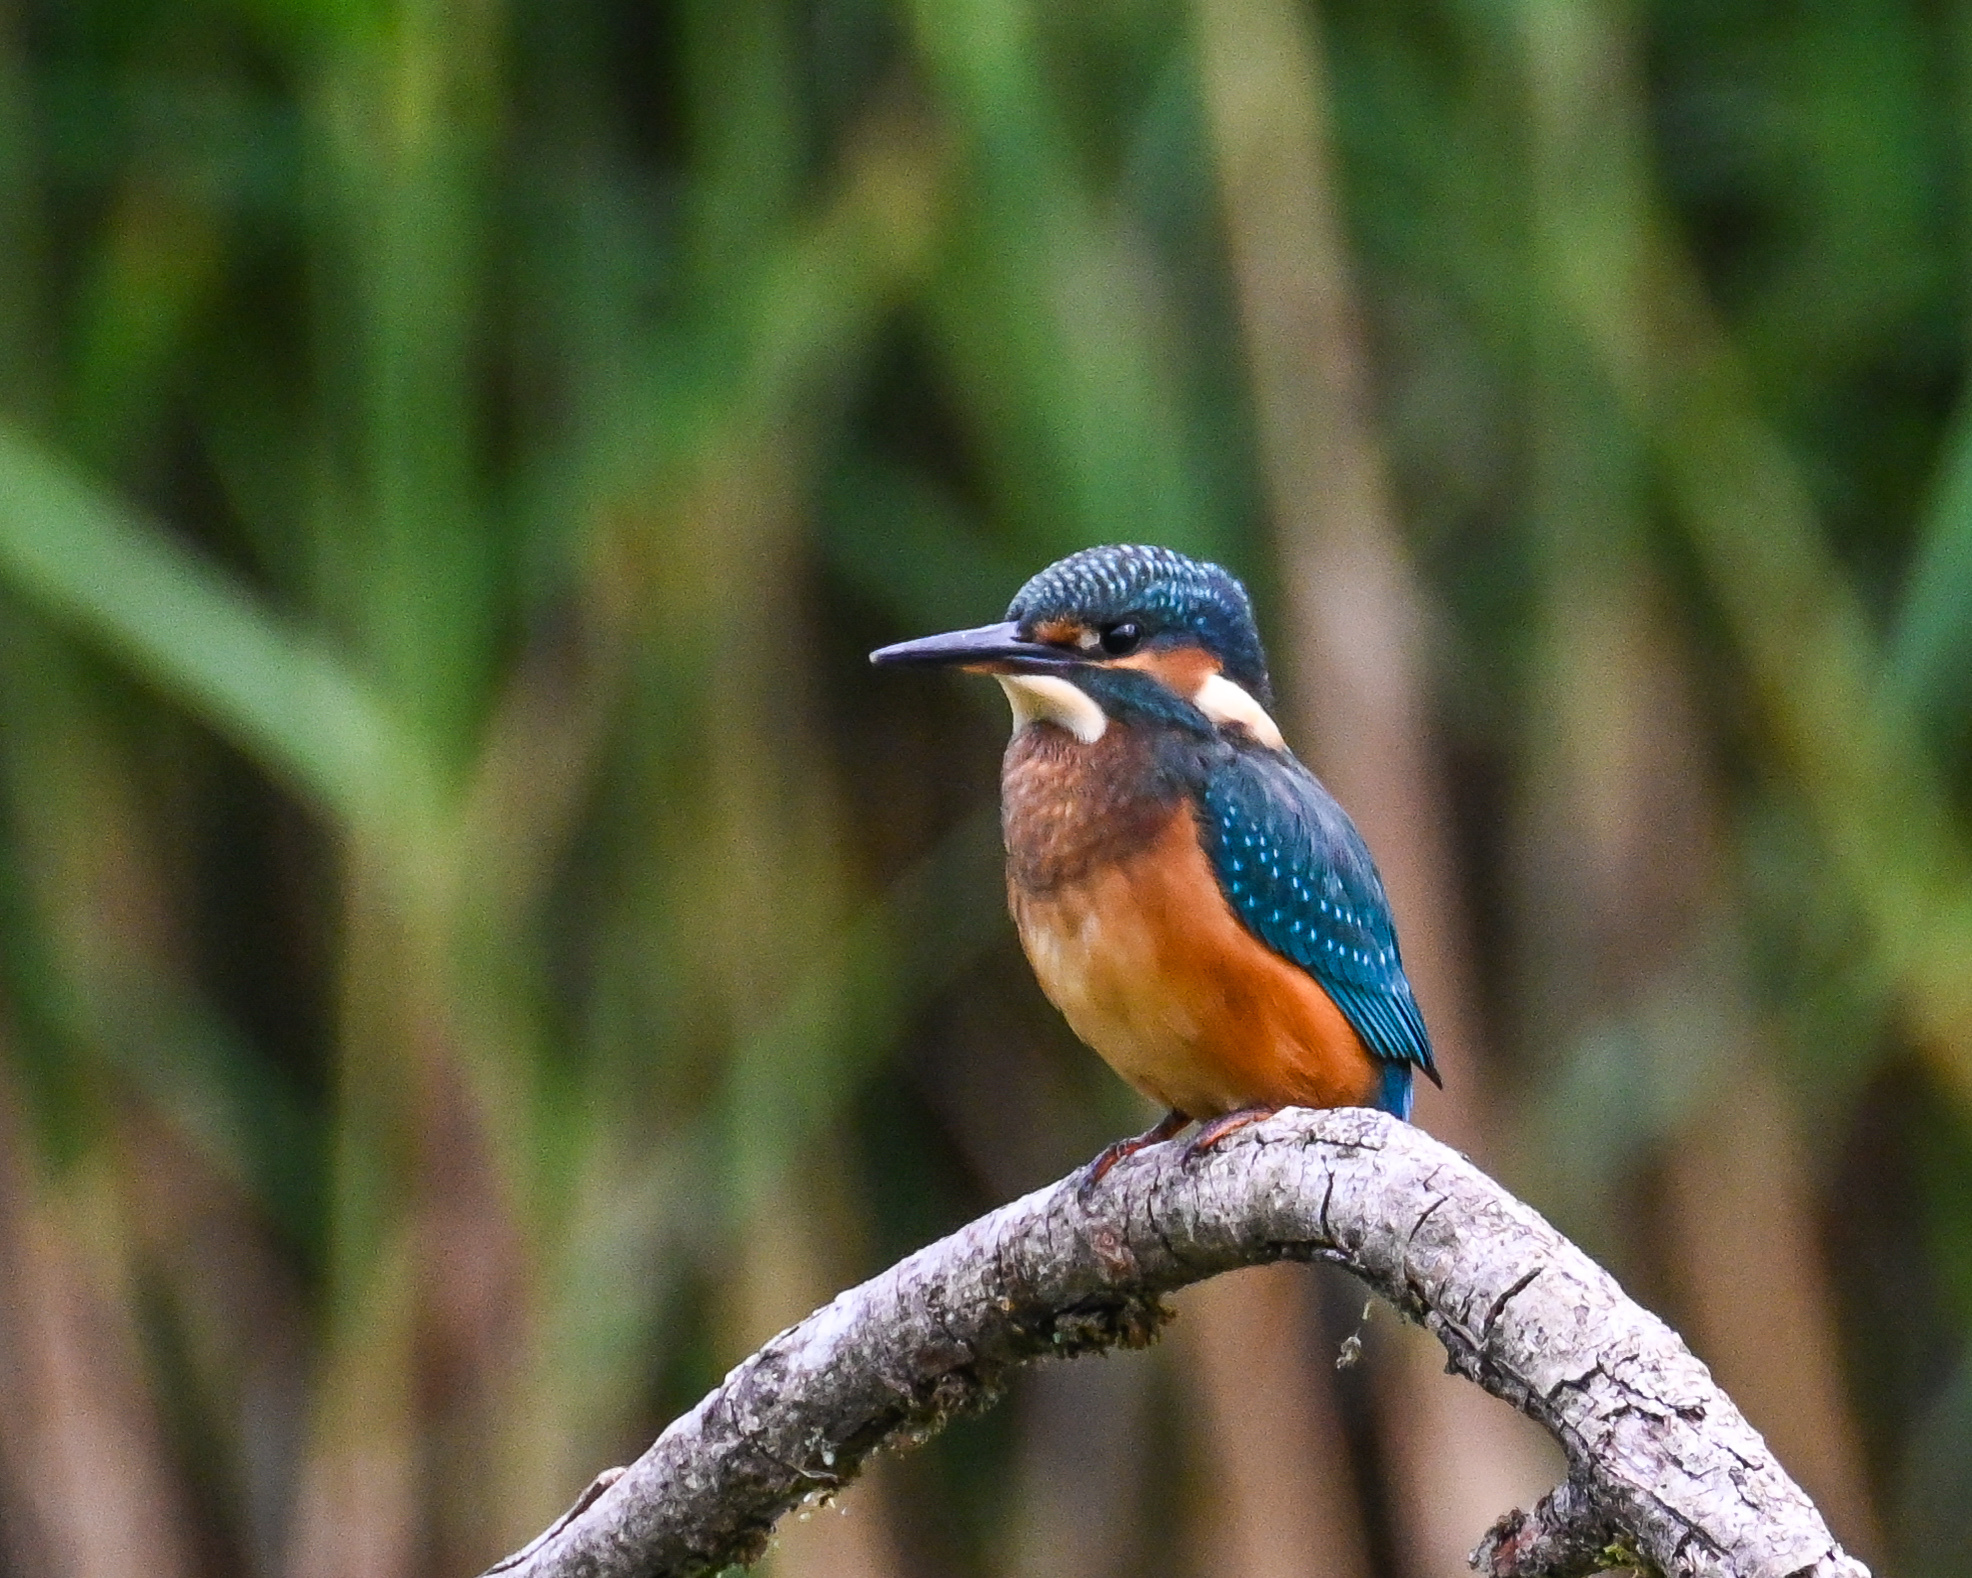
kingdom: Animalia
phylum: Chordata
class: Aves
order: Coraciiformes
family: Alcedinidae
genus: Alcedo
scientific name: Alcedo atthis
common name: Common kingfisher
